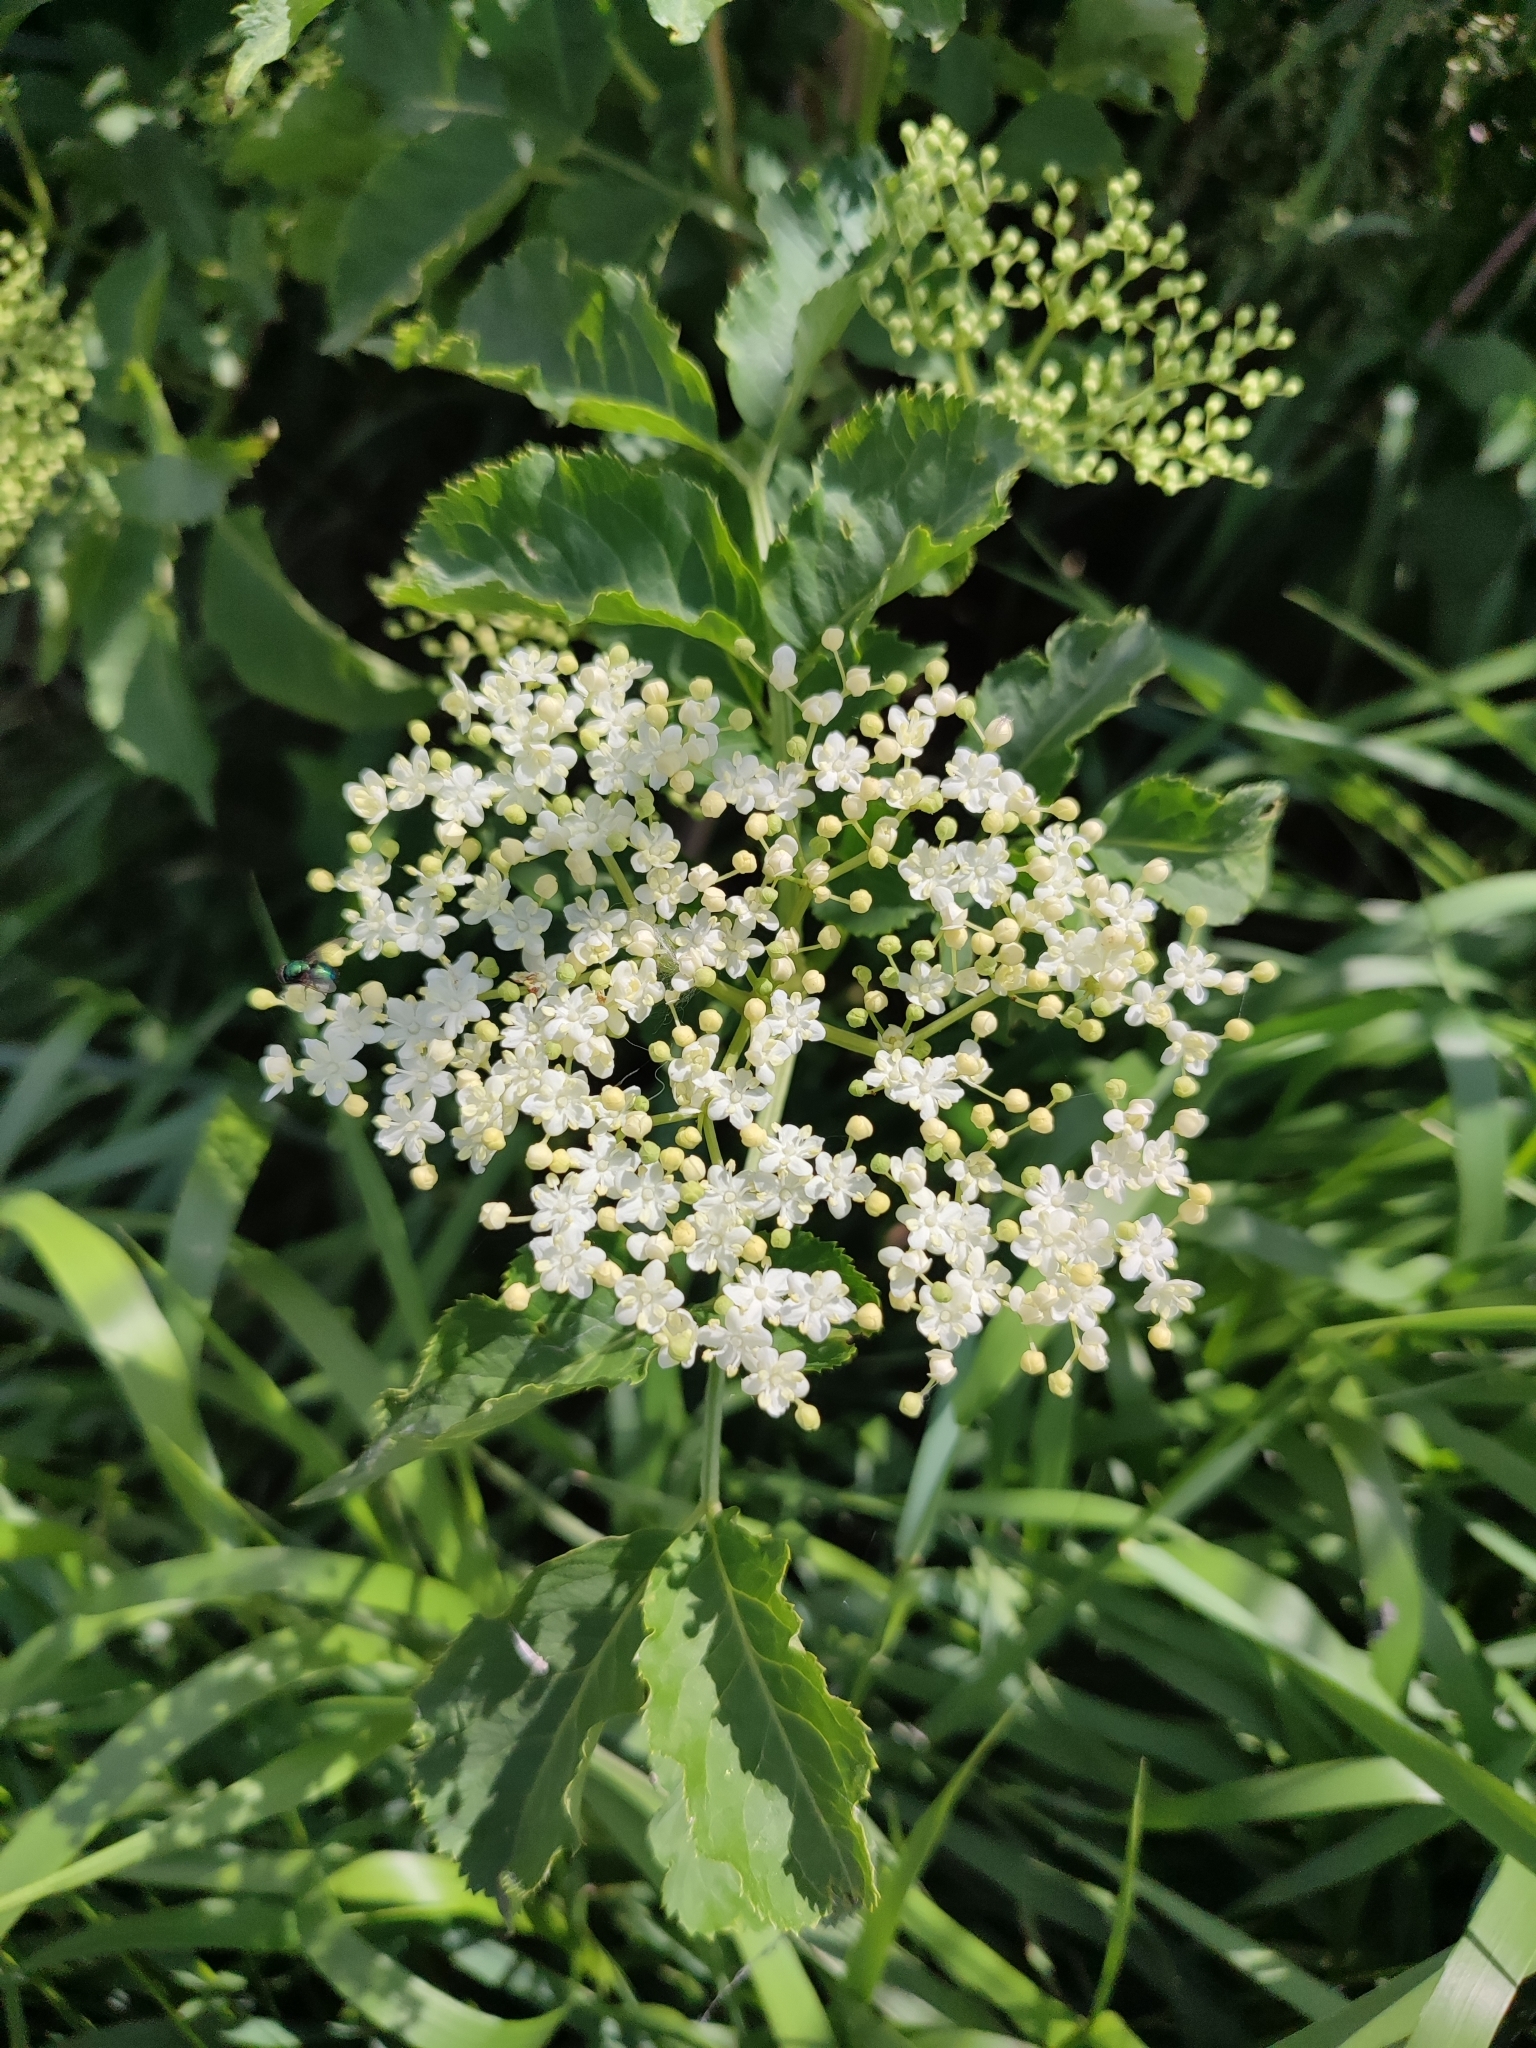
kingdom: Plantae
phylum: Tracheophyta
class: Magnoliopsida
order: Dipsacales
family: Viburnaceae
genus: Sambucus
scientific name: Sambucus nigra
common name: Elder
